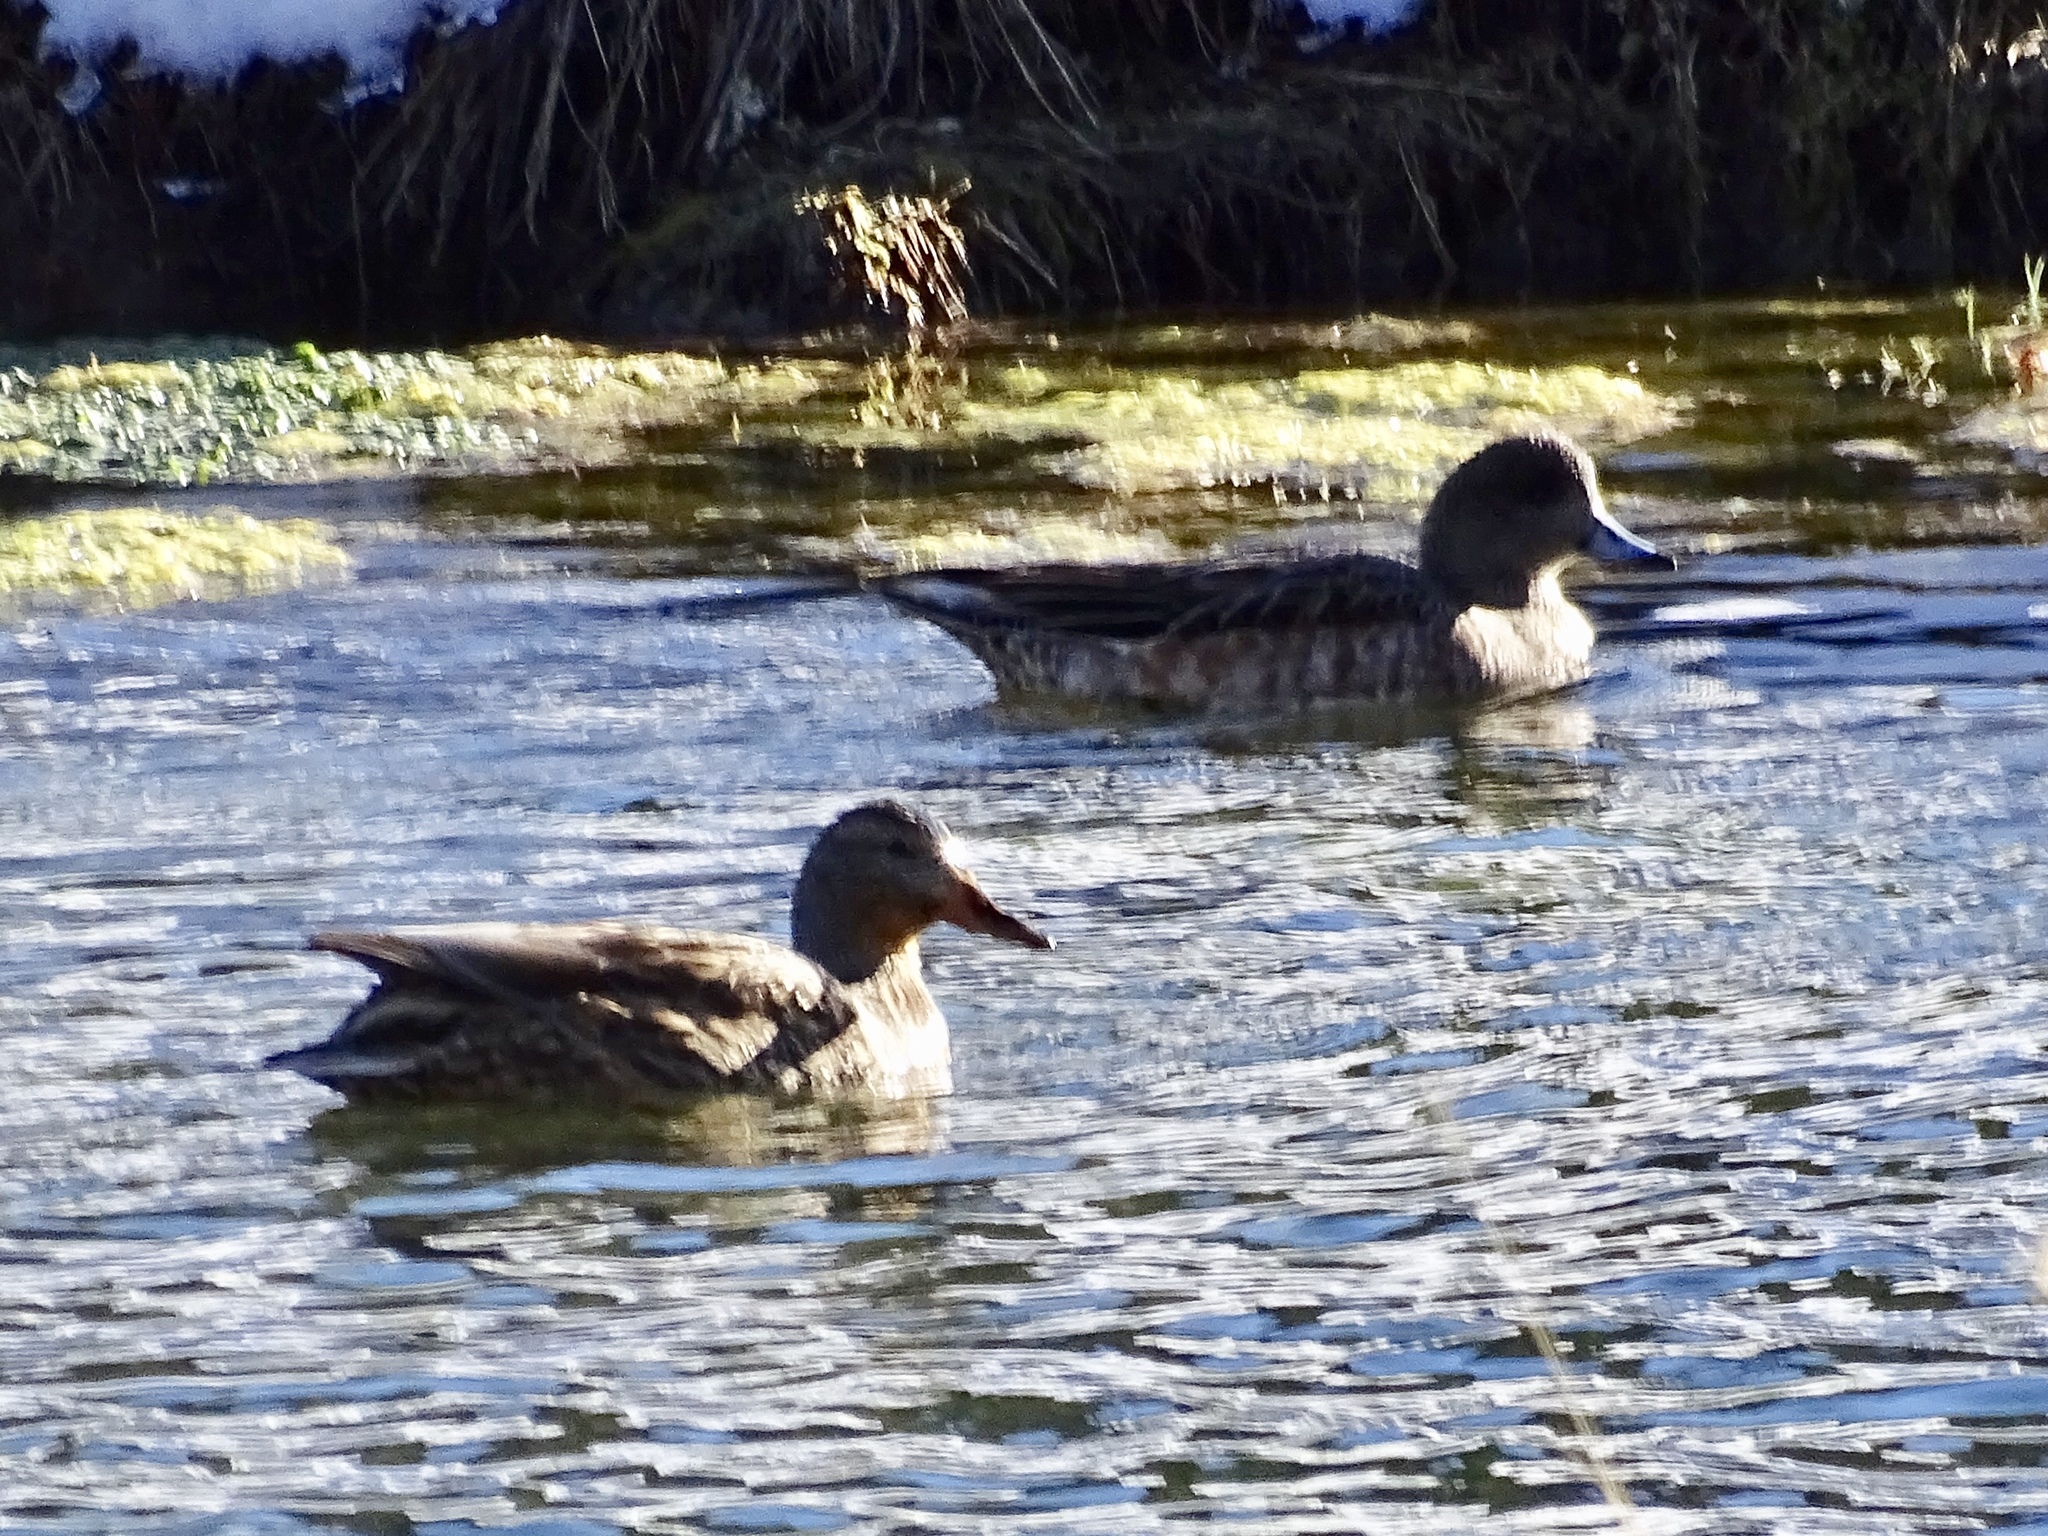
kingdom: Animalia
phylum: Chordata
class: Aves
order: Anseriformes
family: Anatidae
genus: Anas
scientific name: Anas platyrhynchos
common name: Mallard
